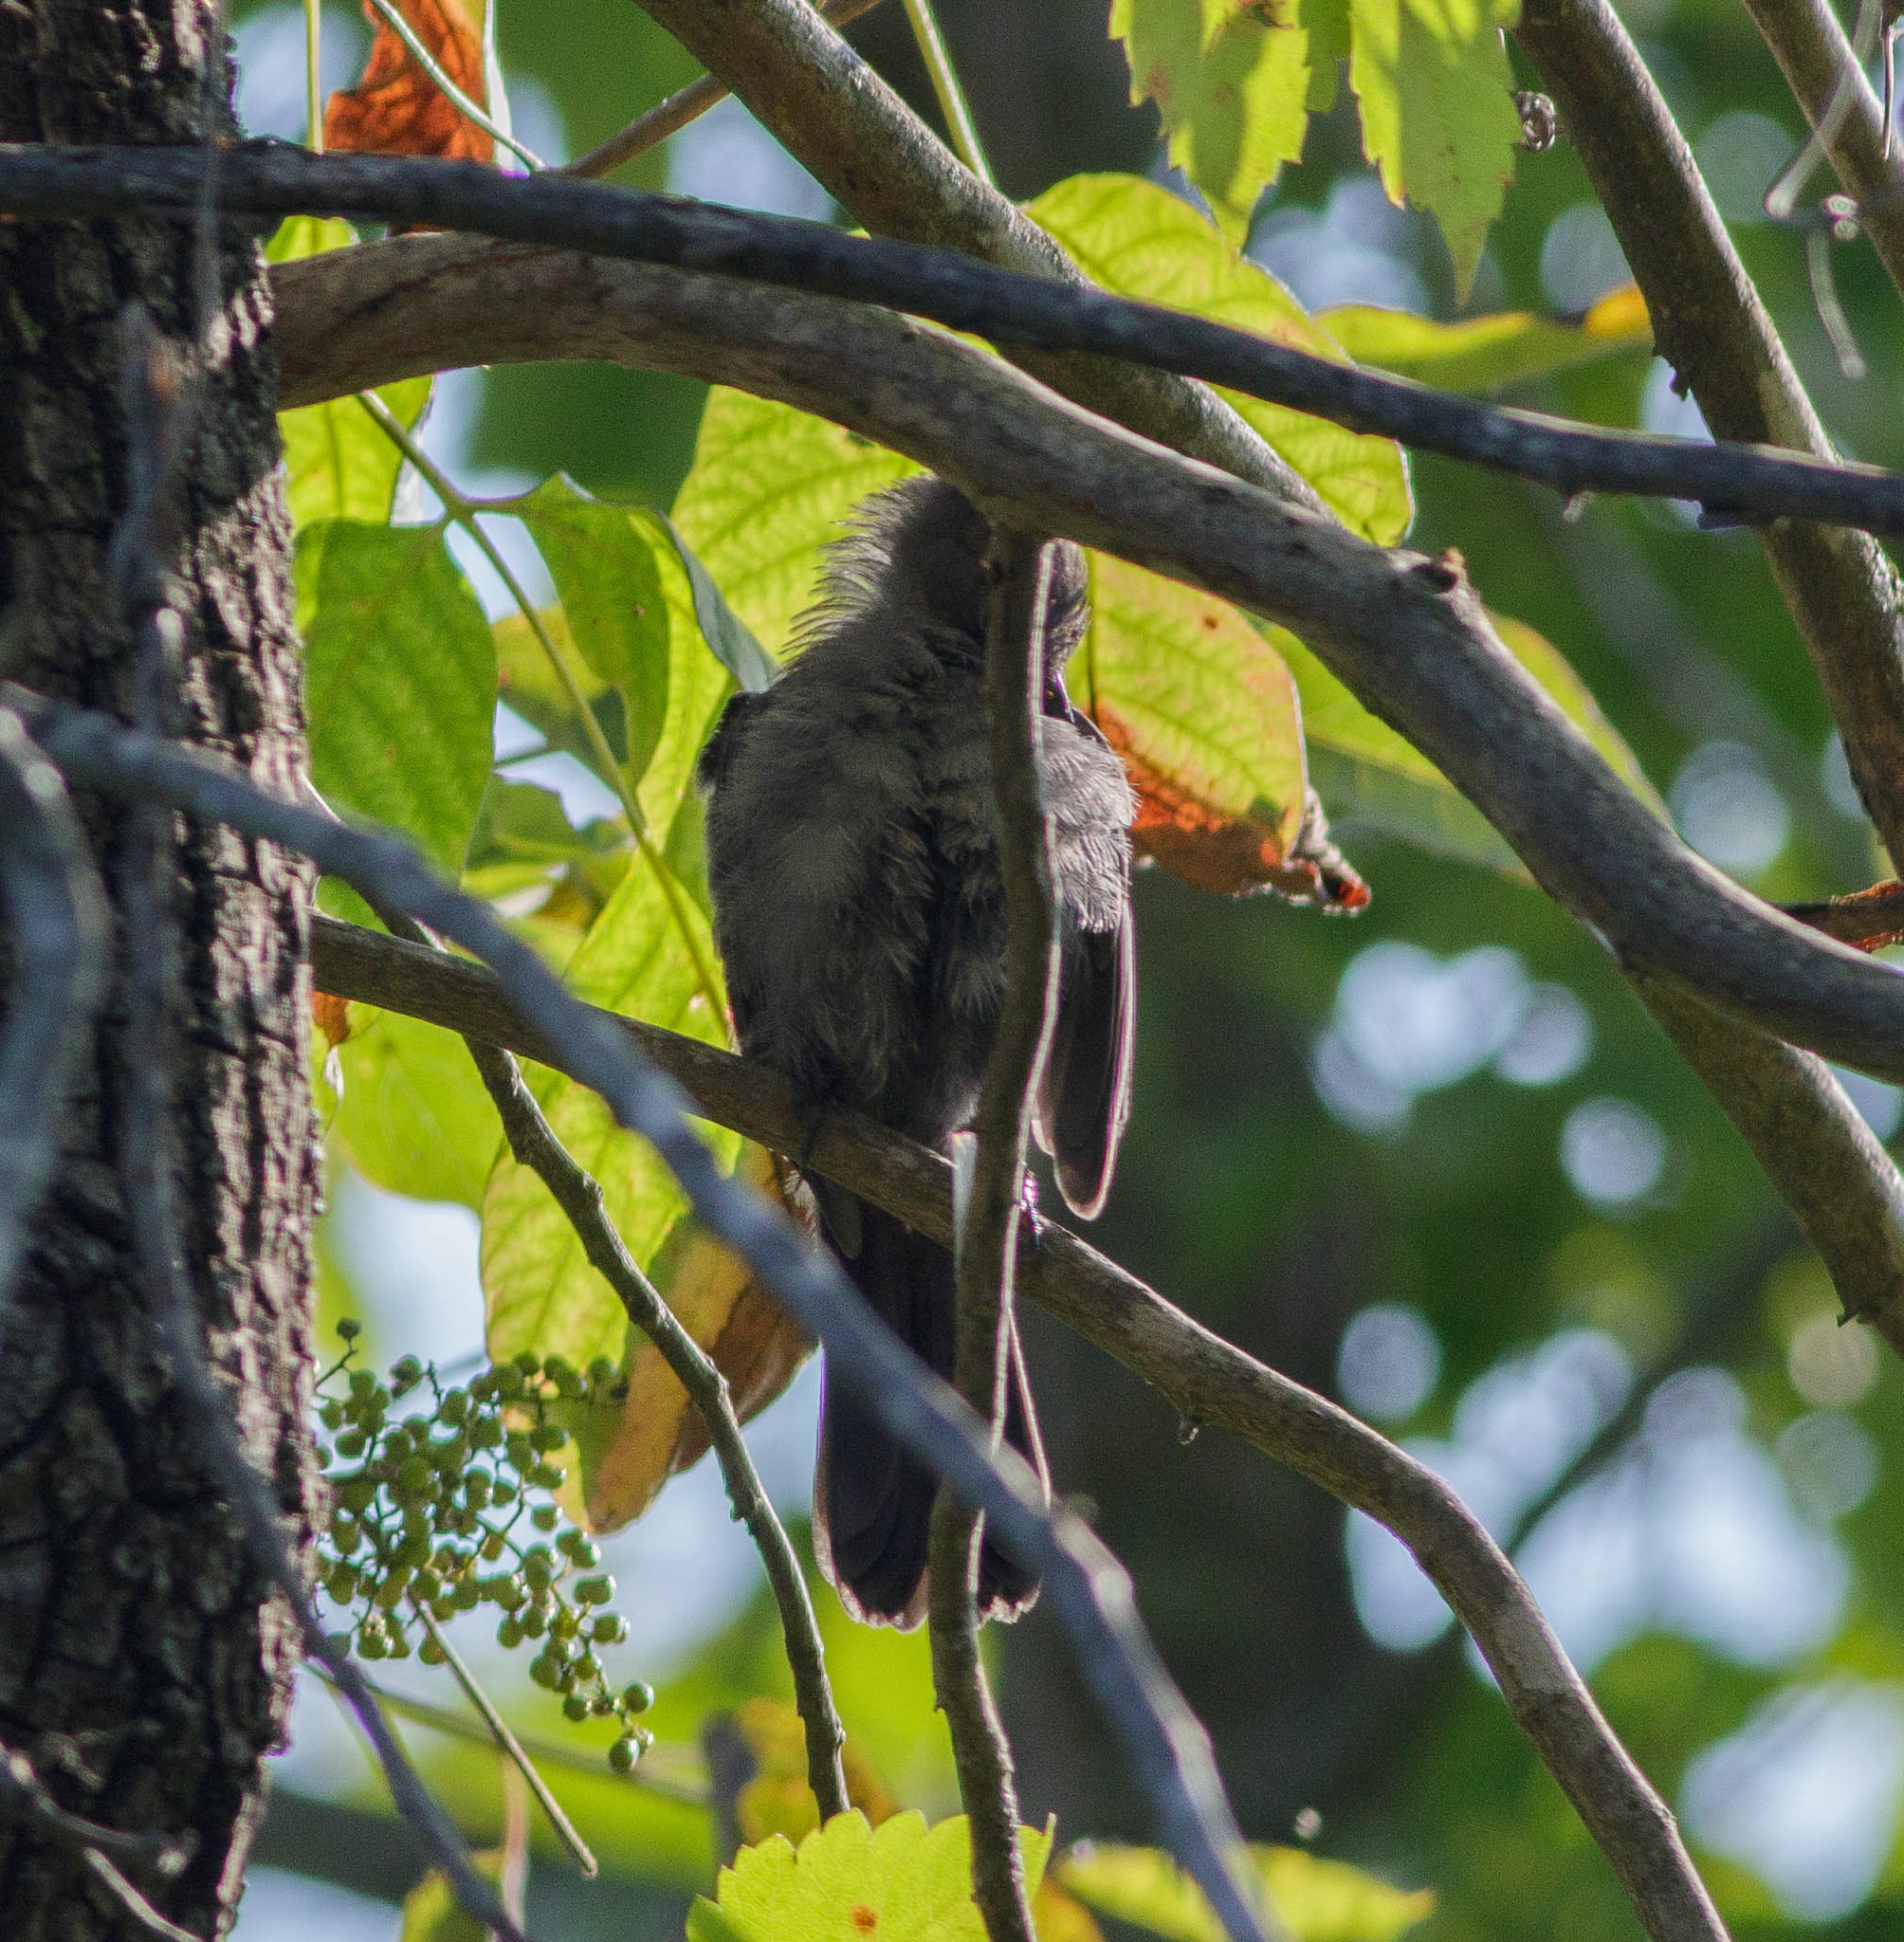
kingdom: Animalia
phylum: Chordata
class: Aves
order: Passeriformes
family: Mimidae
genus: Dumetella
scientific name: Dumetella carolinensis
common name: Gray catbird
